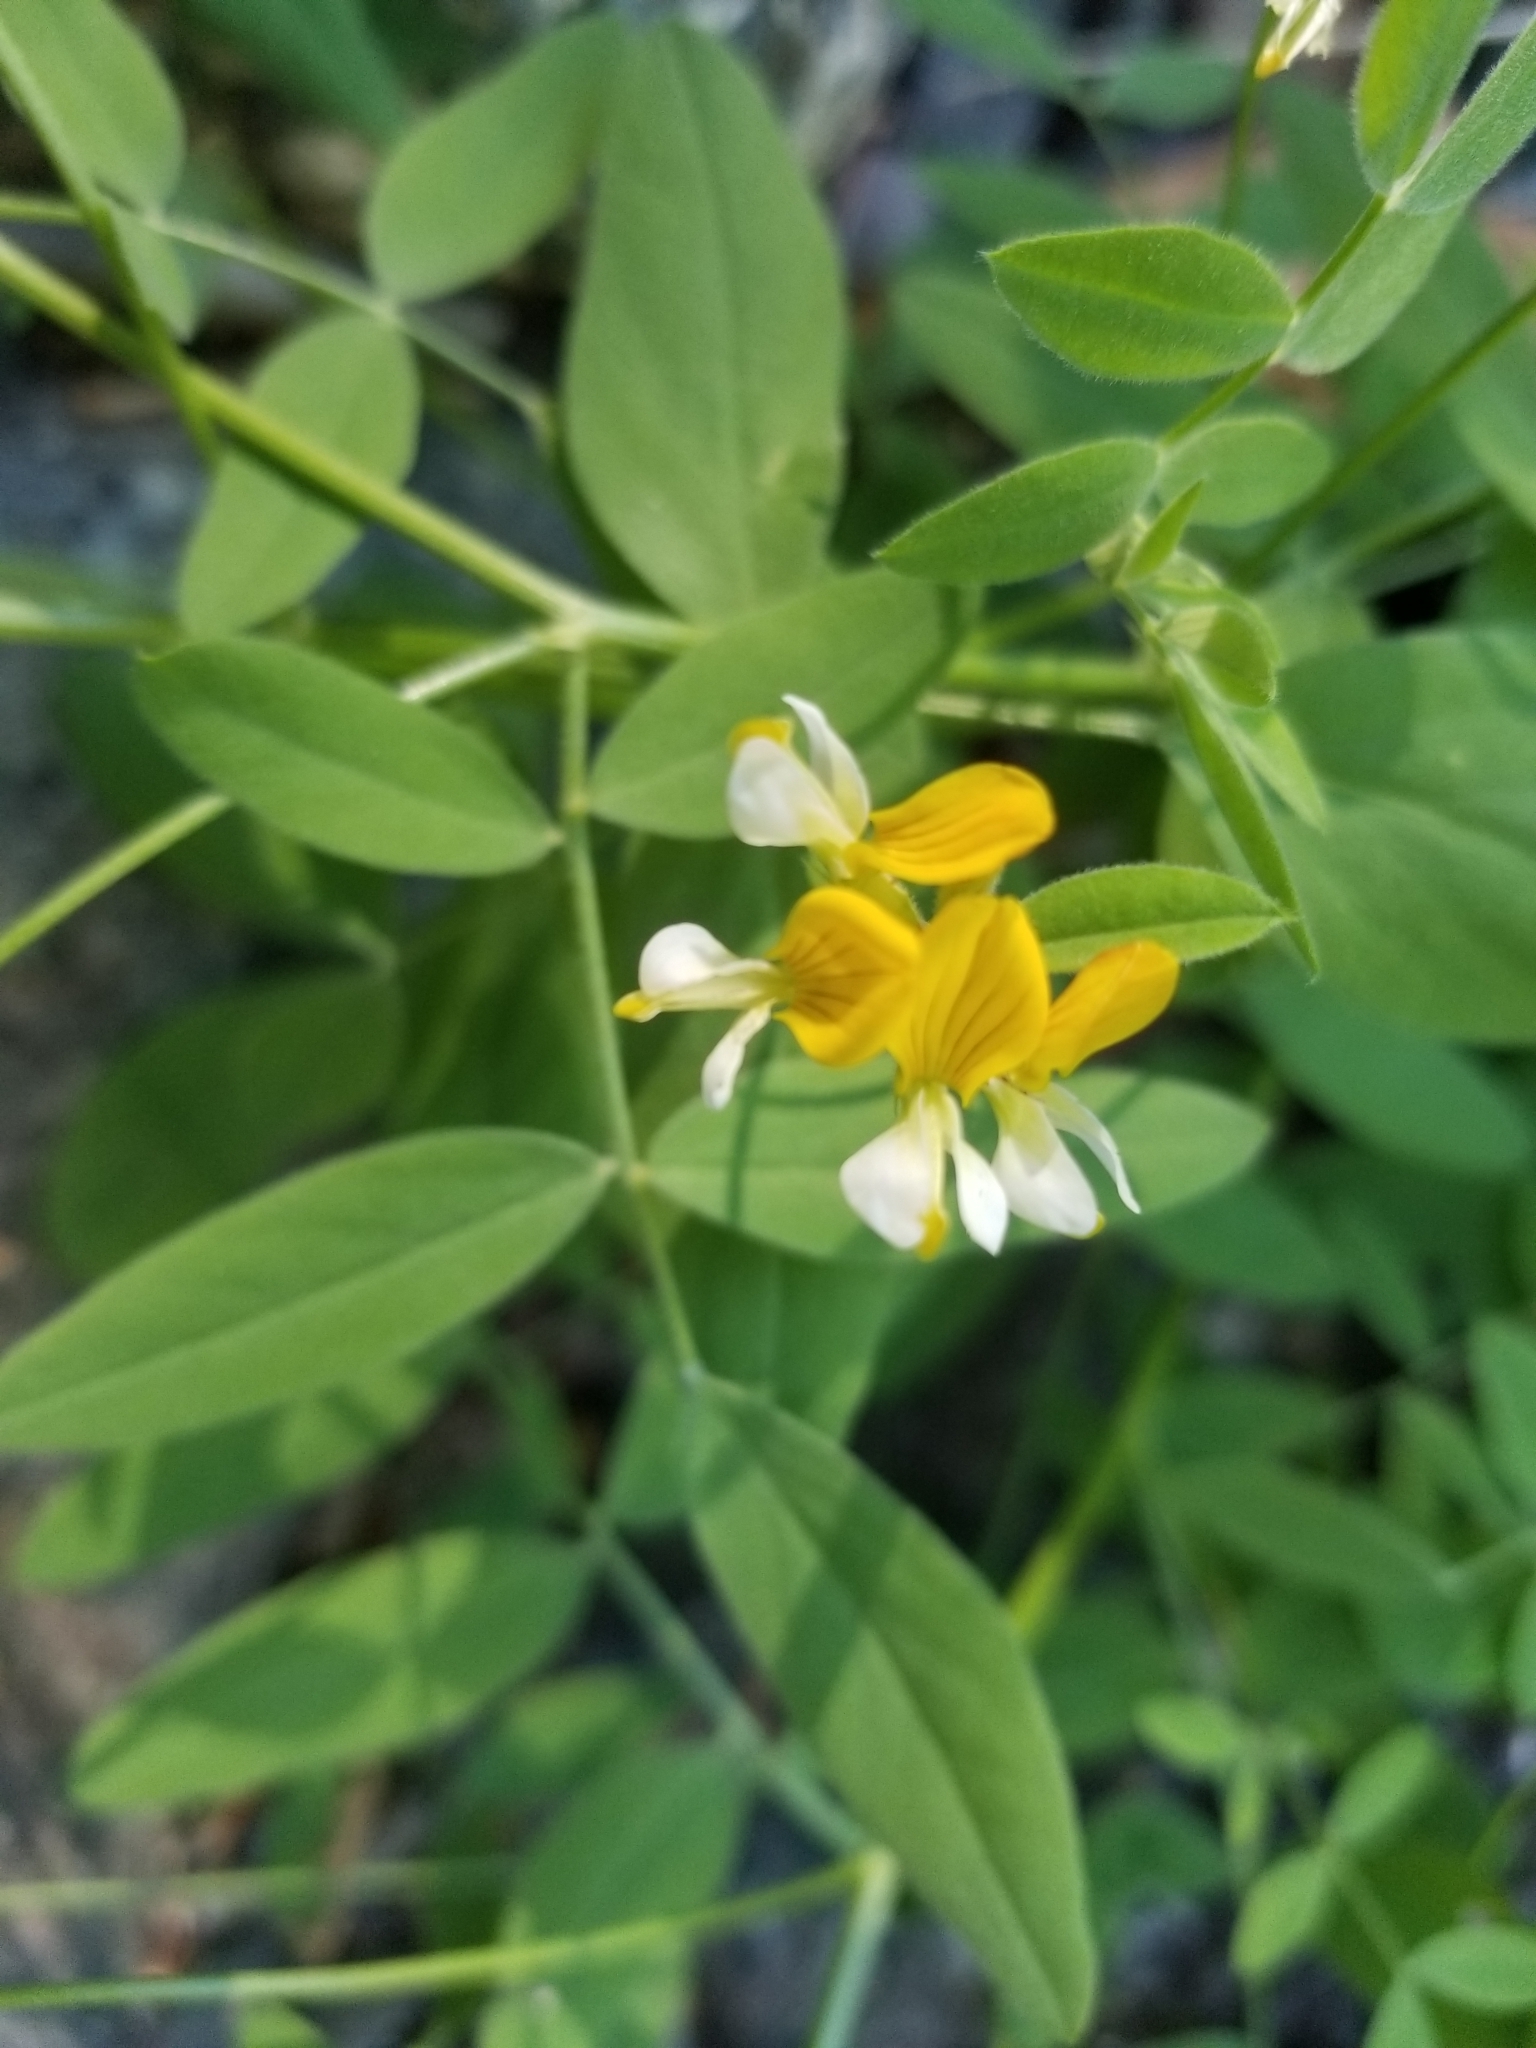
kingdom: Plantae
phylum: Tracheophyta
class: Magnoliopsida
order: Fabales
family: Fabaceae
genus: Hosackia
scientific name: Hosackia oblongifolia
